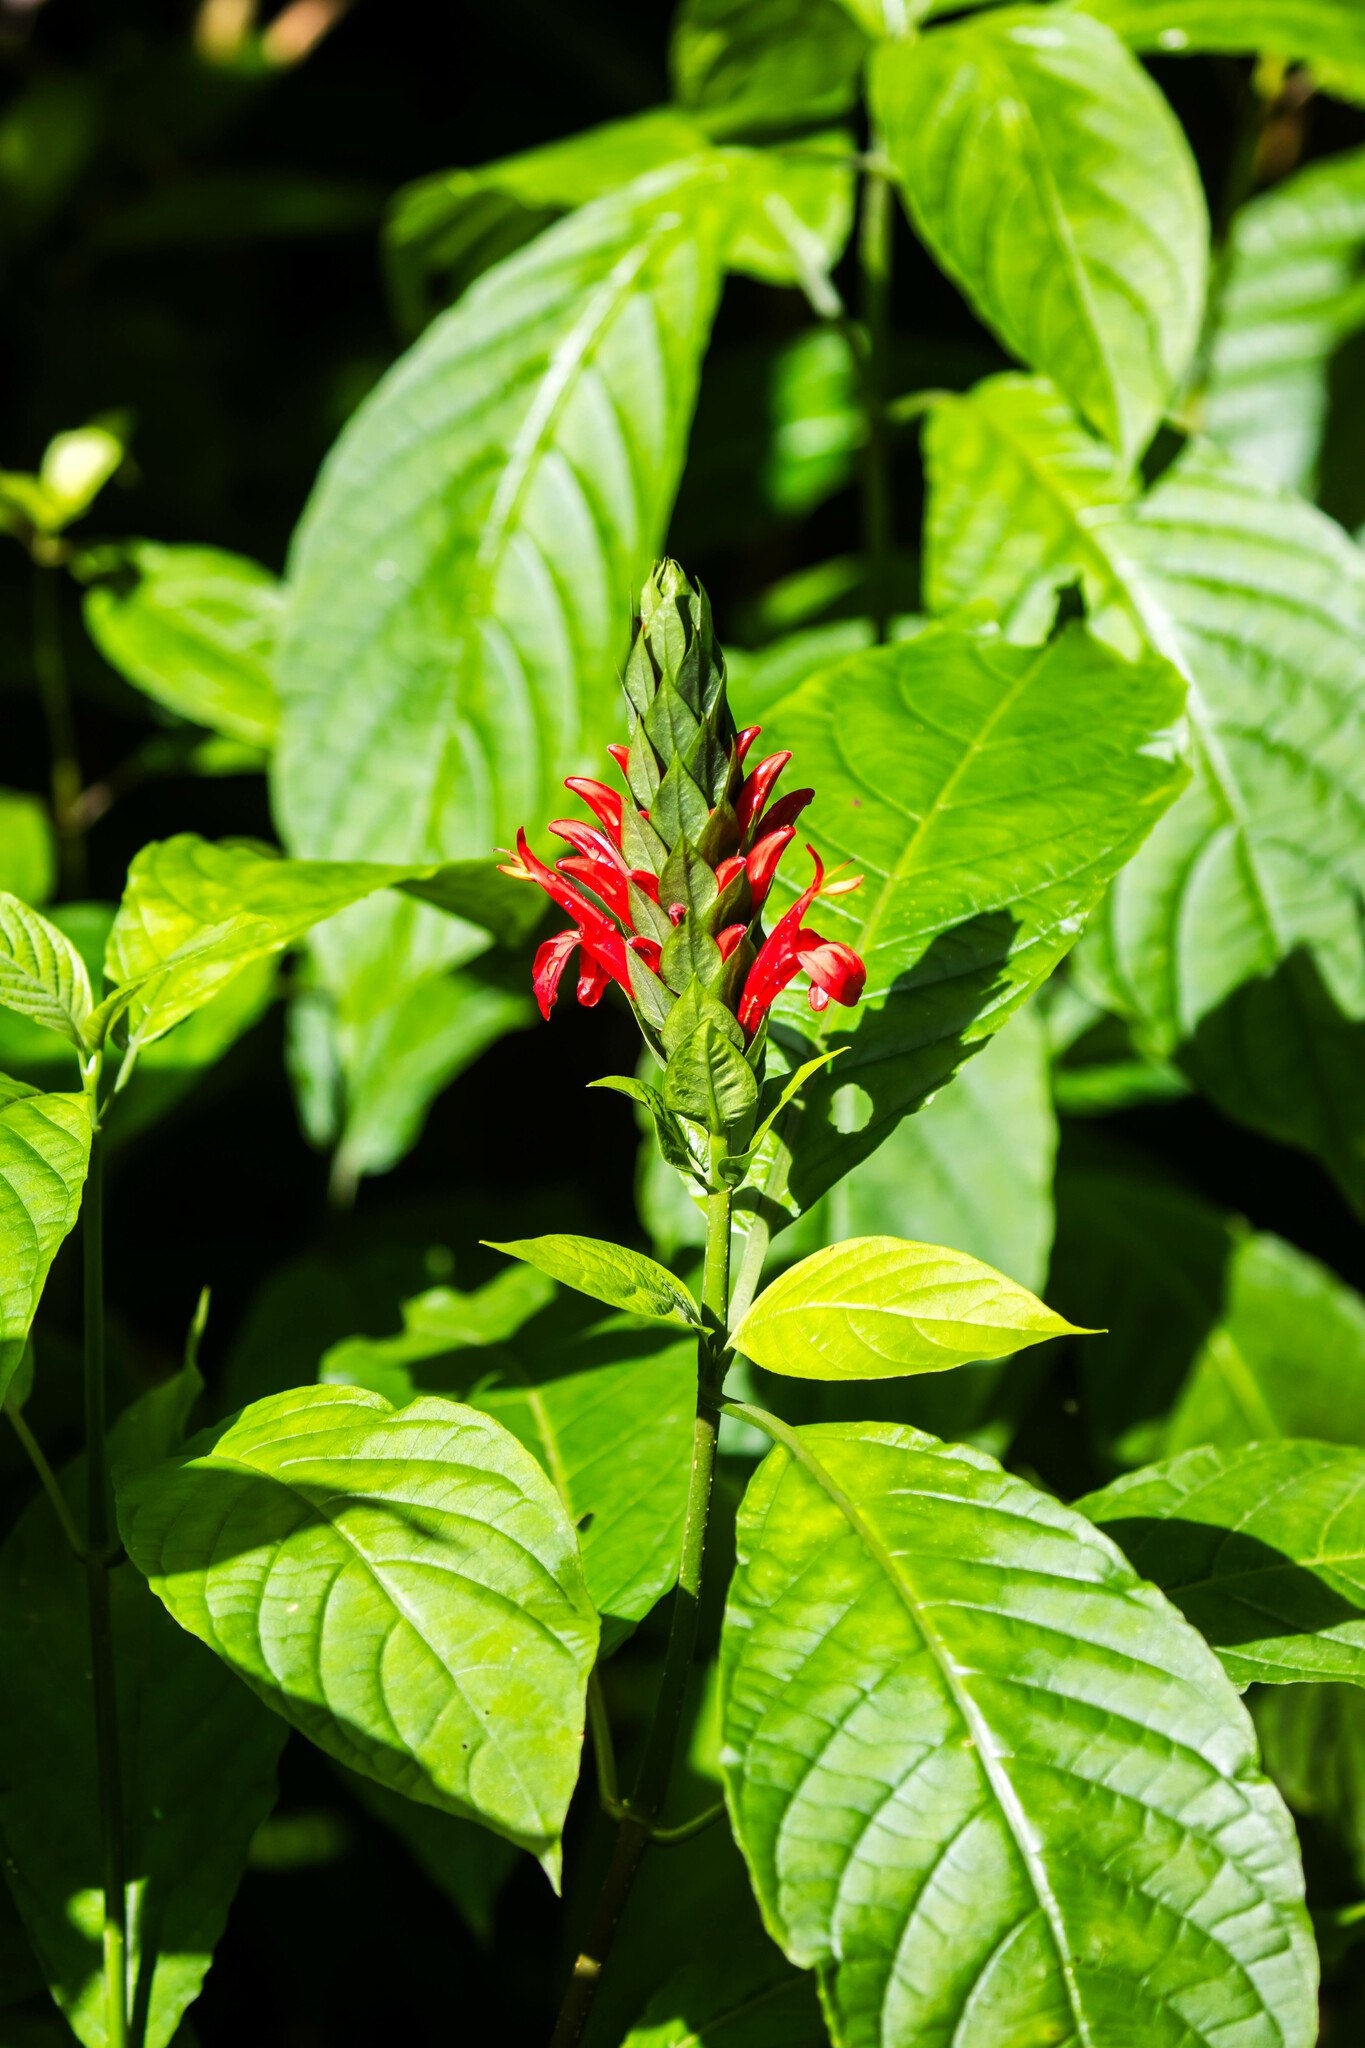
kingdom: Plantae
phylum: Tracheophyta
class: Magnoliopsida
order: Lamiales
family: Acanthaceae
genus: Pachystachys
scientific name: Pachystachys spicata
